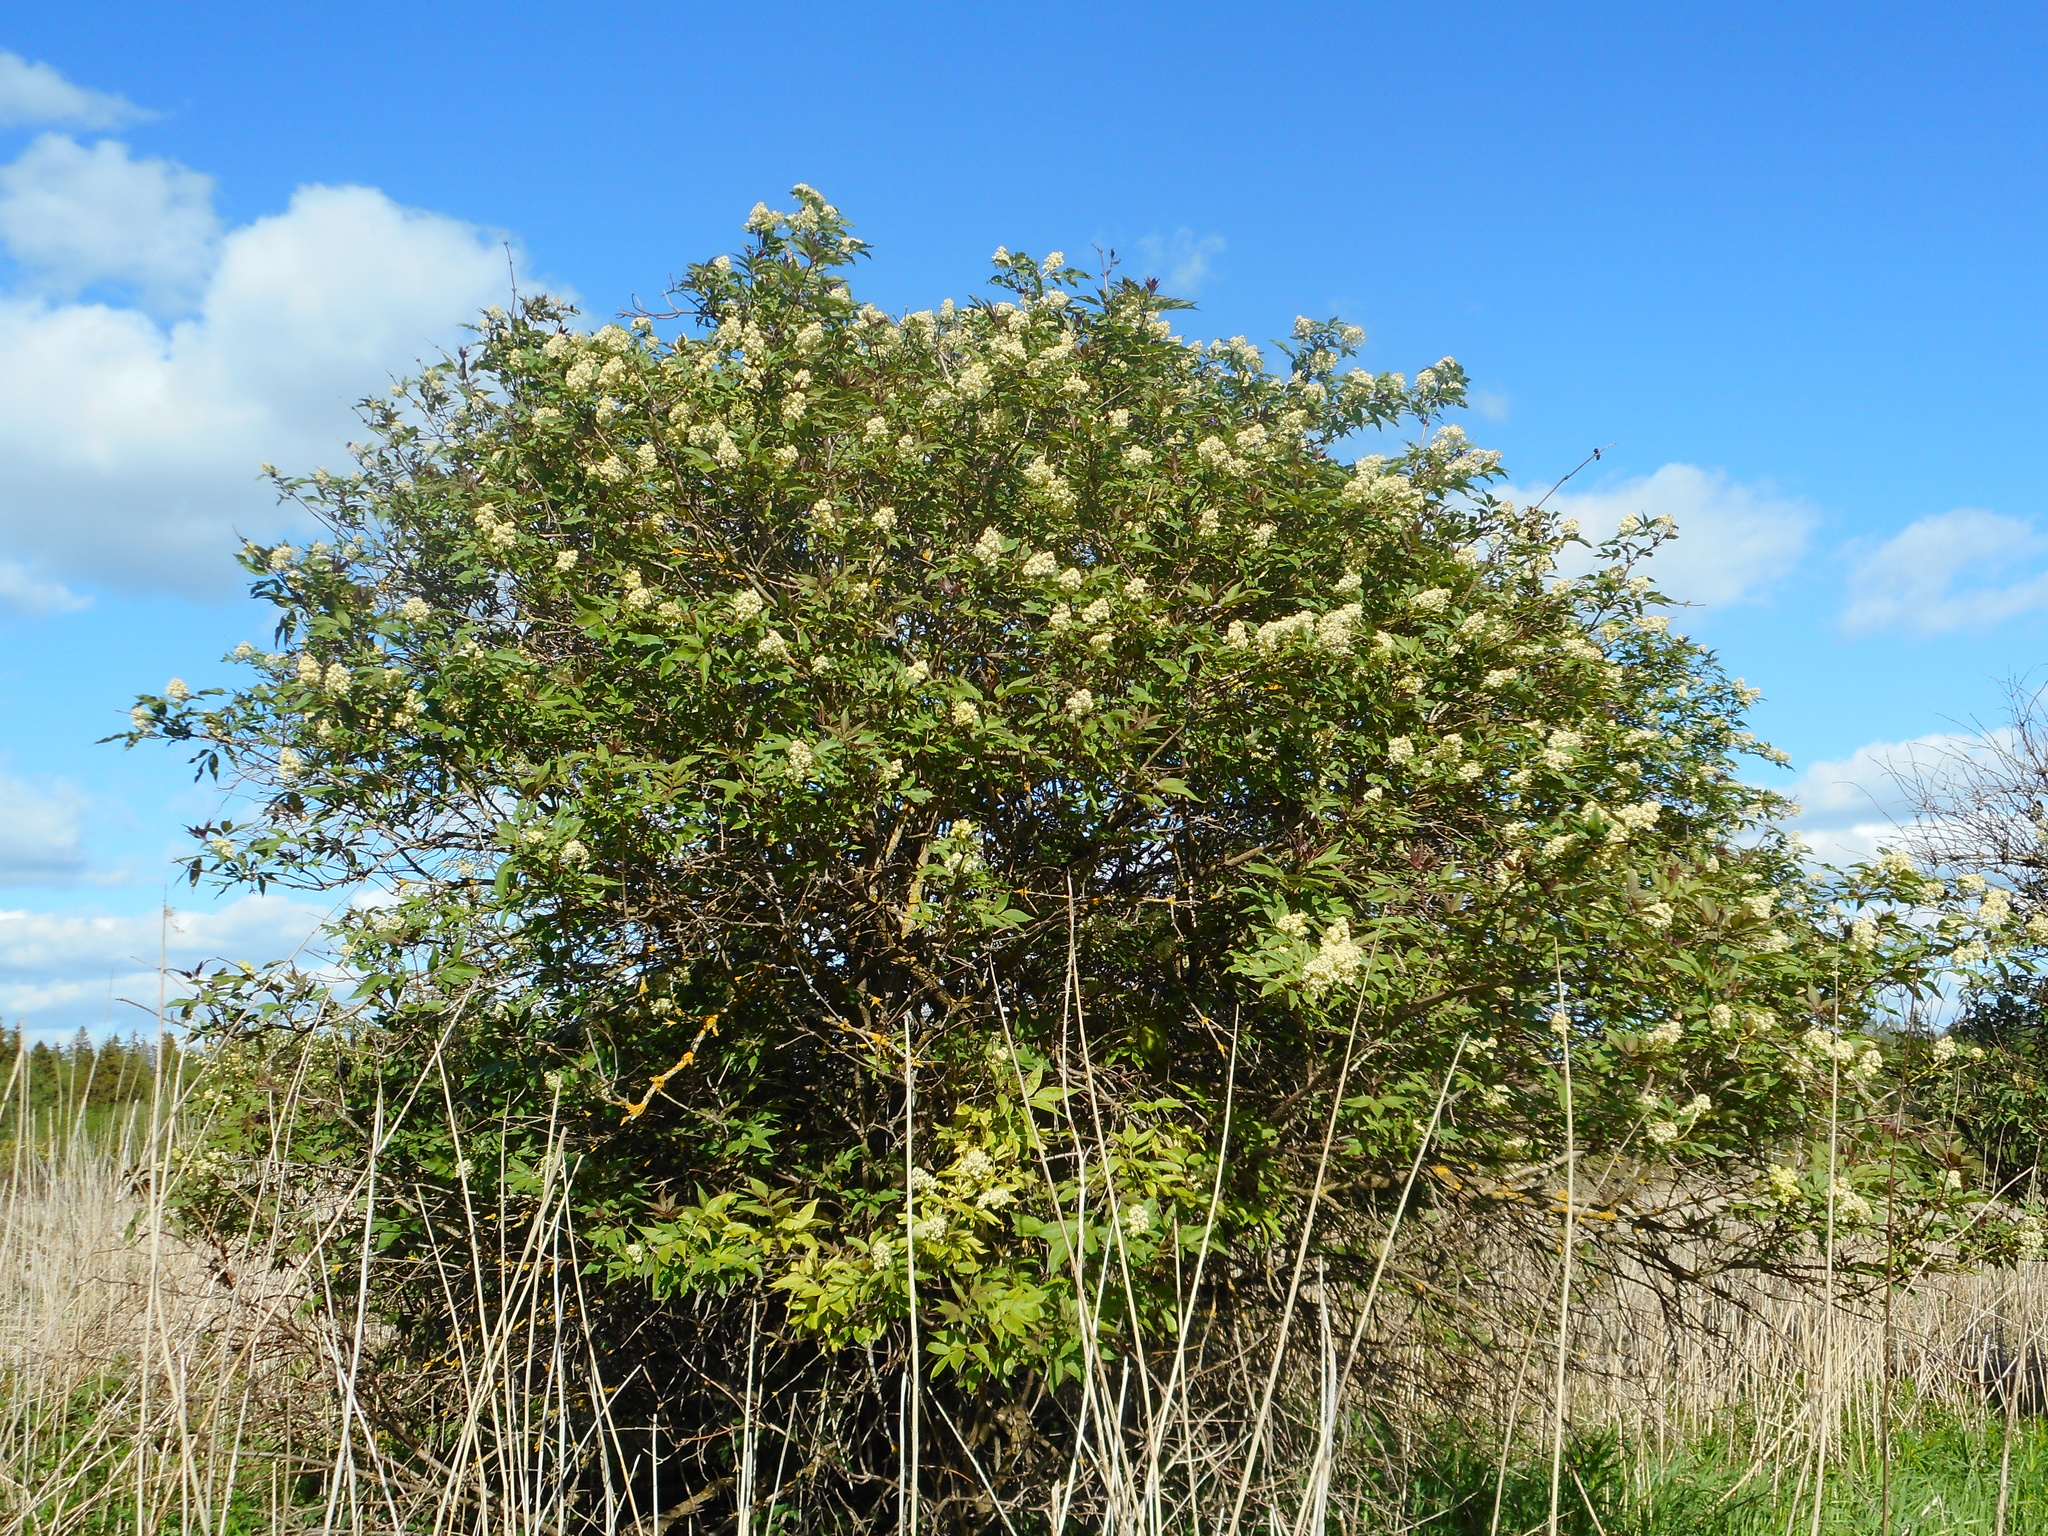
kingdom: Plantae
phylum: Tracheophyta
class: Magnoliopsida
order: Dipsacales
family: Viburnaceae
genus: Sambucus
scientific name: Sambucus racemosa
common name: Red-berried elder
